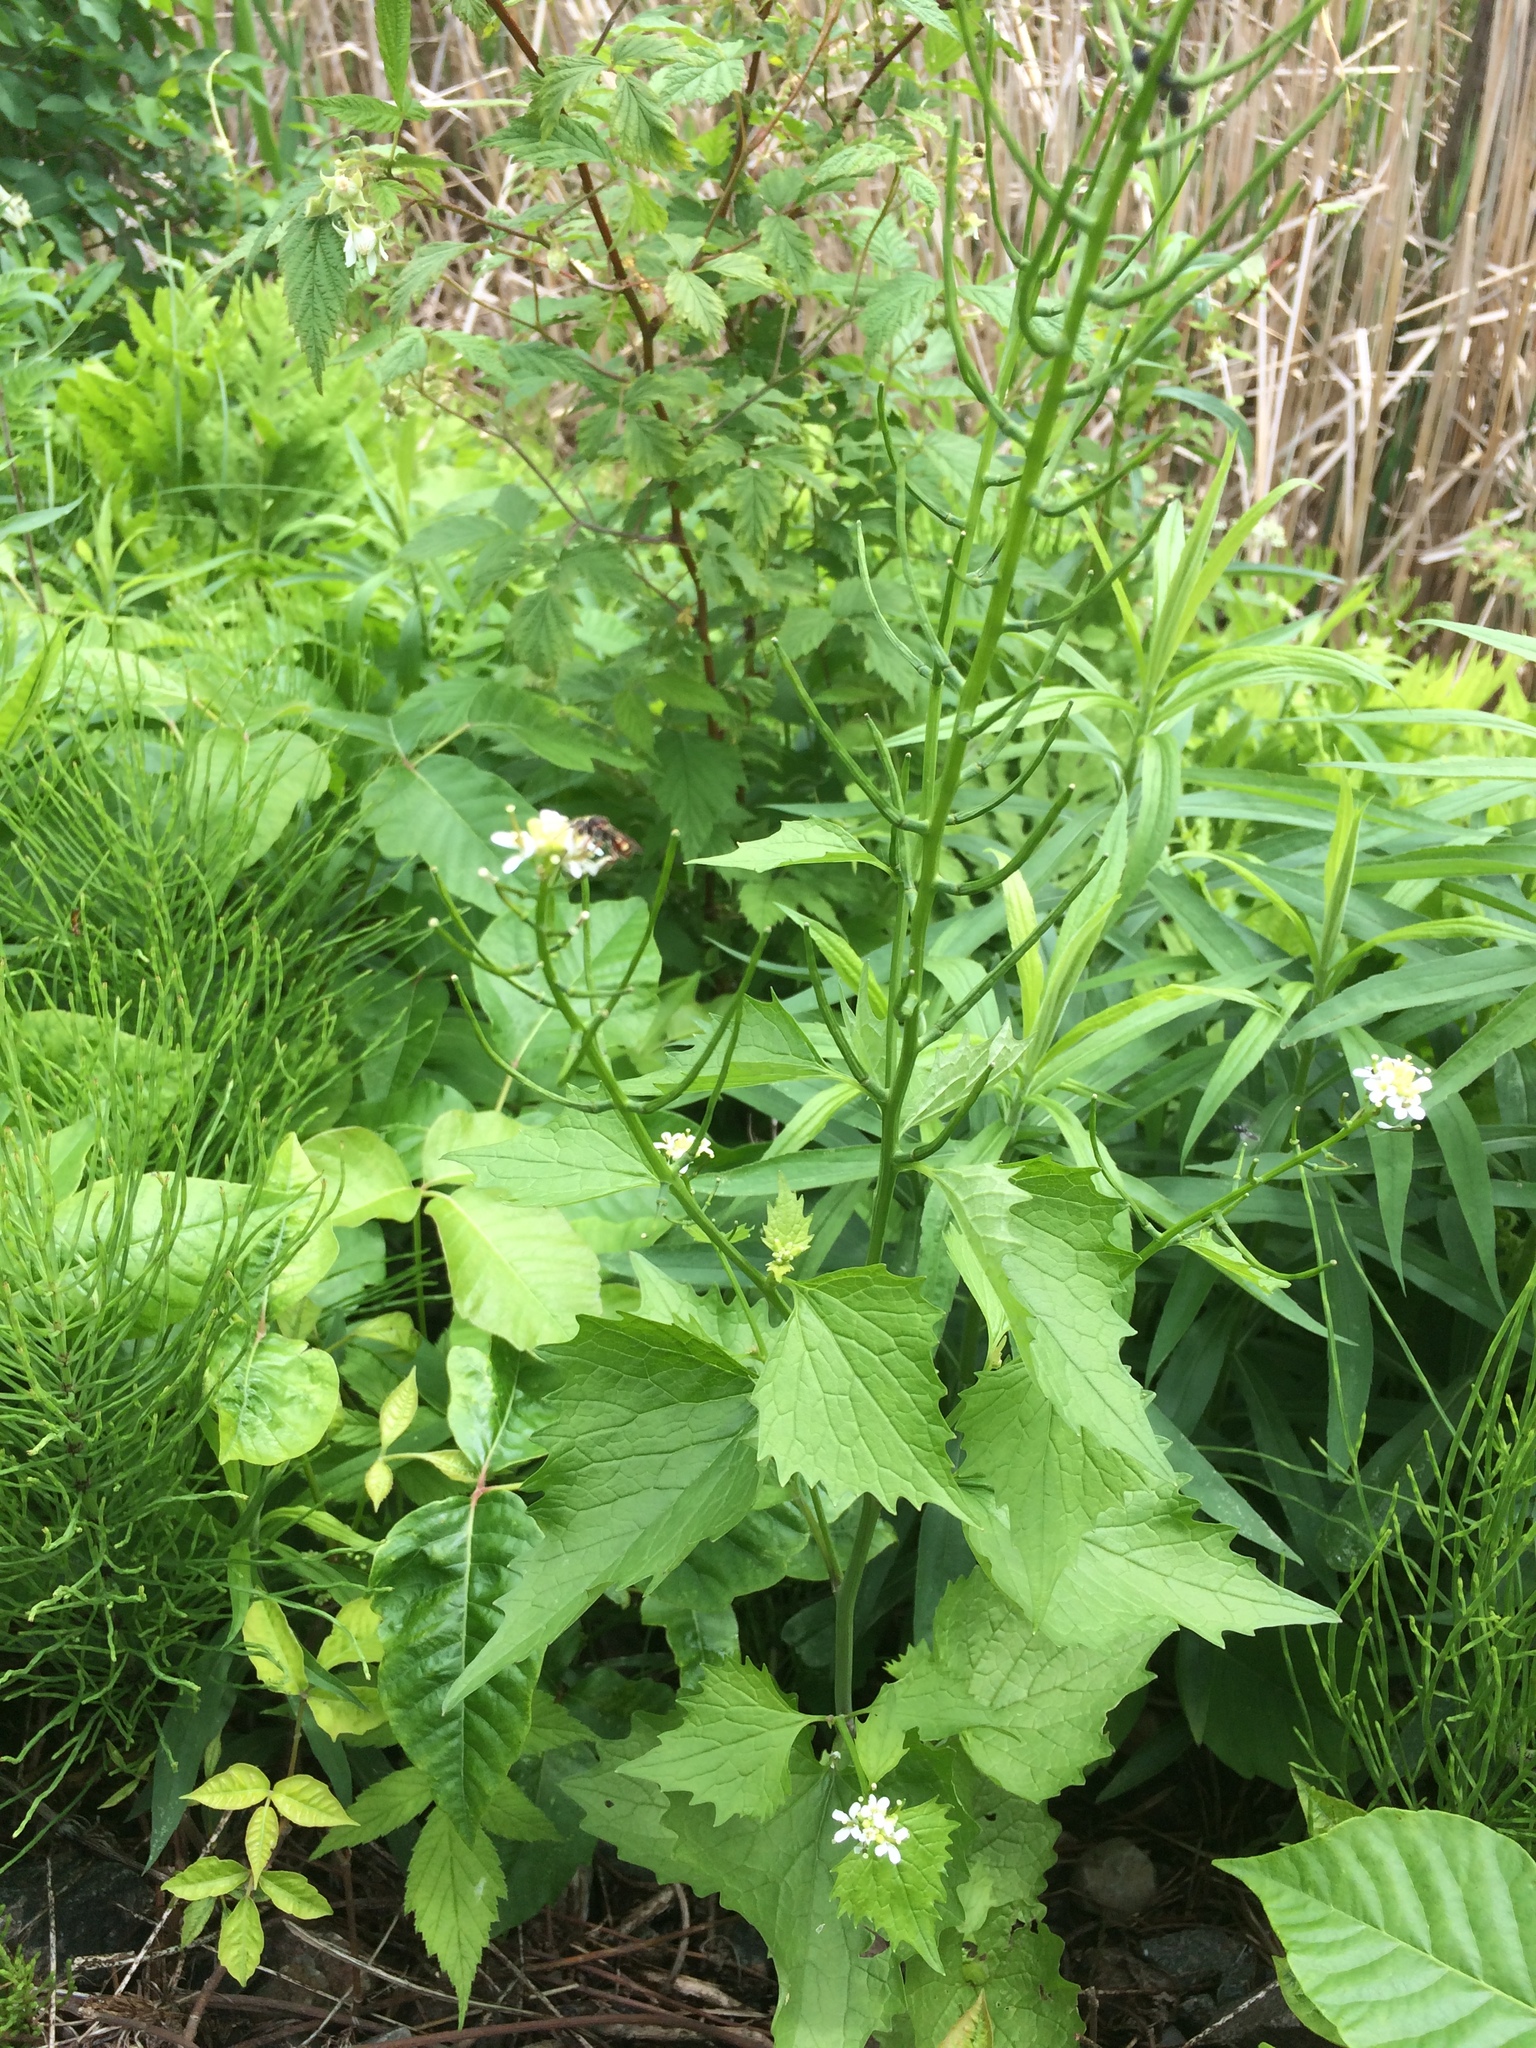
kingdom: Plantae
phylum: Tracheophyta
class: Magnoliopsida
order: Brassicales
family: Brassicaceae
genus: Alliaria
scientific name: Alliaria petiolata
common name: Garlic mustard
